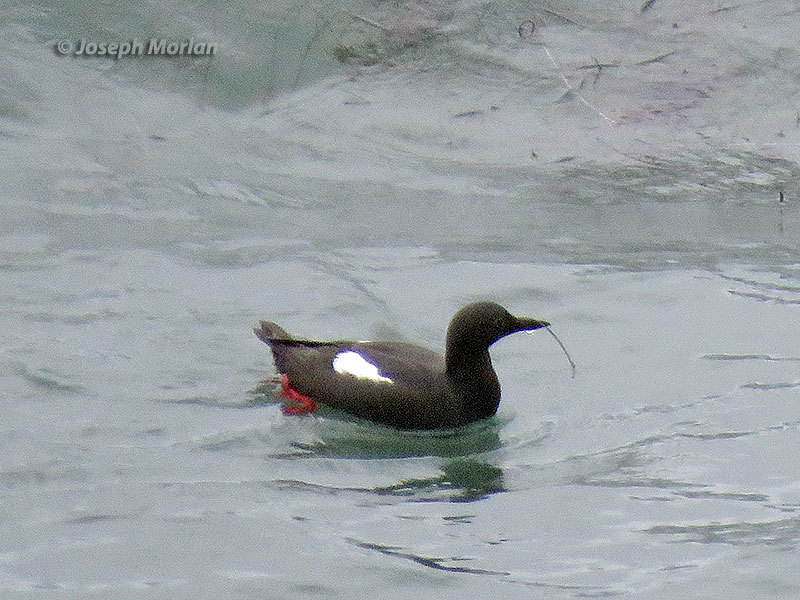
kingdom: Animalia
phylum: Chordata
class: Aves
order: Charadriiformes
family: Alcidae
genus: Cepphus
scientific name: Cepphus columba
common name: Pigeon guillemot
